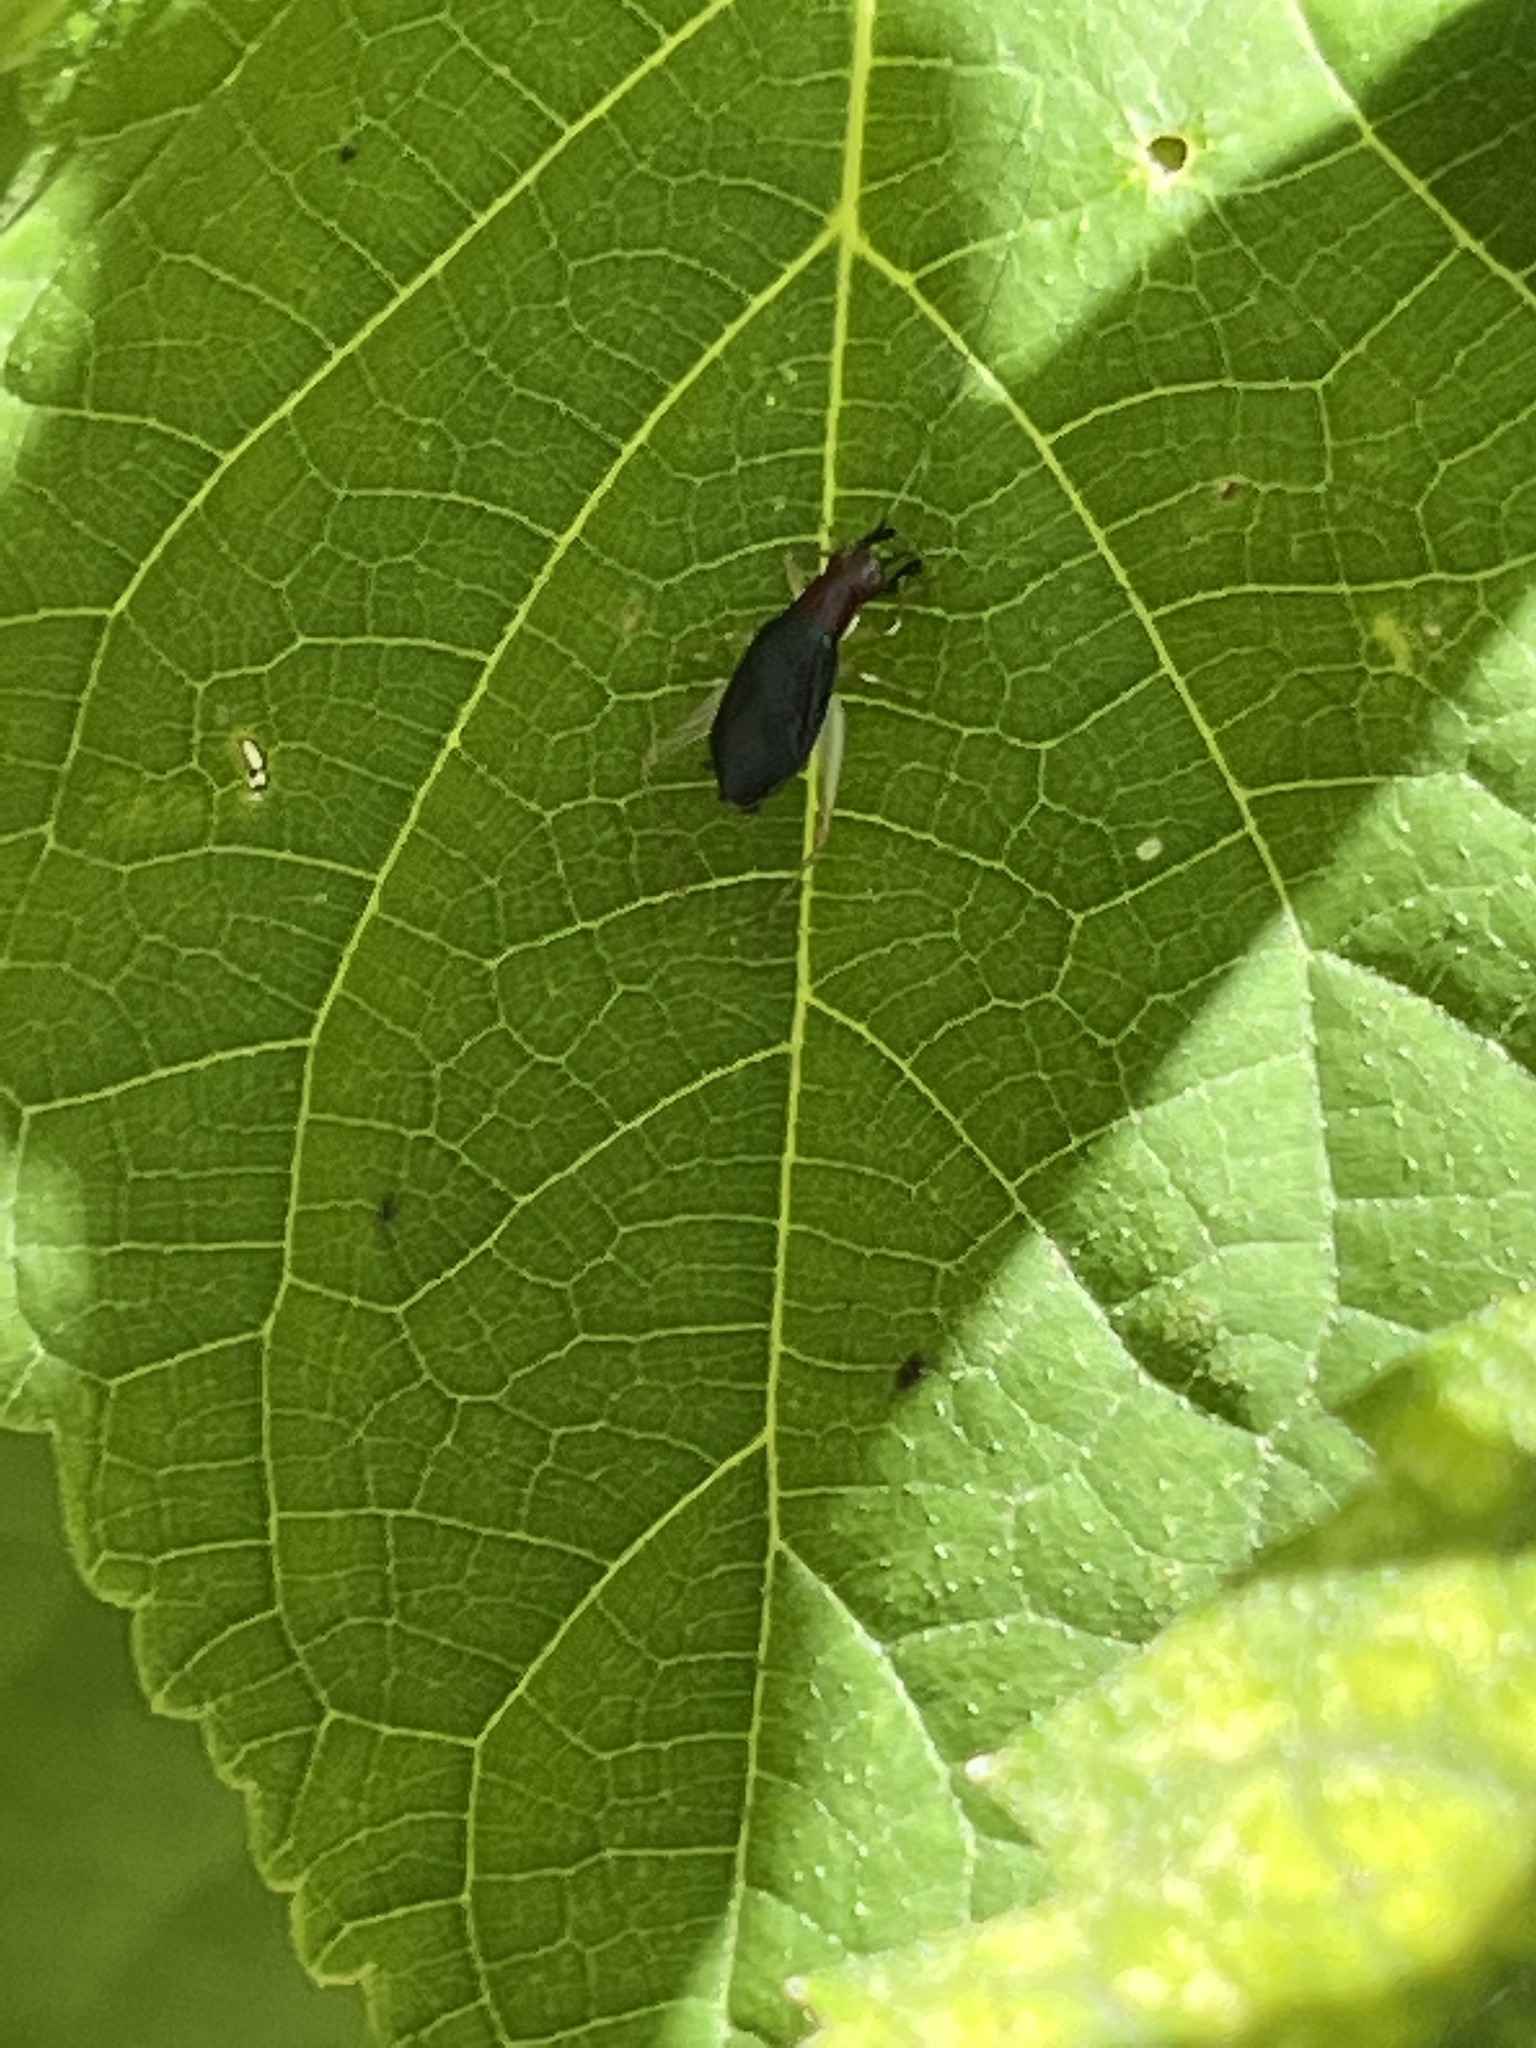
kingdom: Animalia
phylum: Arthropoda
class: Insecta
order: Orthoptera
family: Trigonidiidae
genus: Phyllopalpus
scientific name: Phyllopalpus pulchellus
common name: Handsome trig
